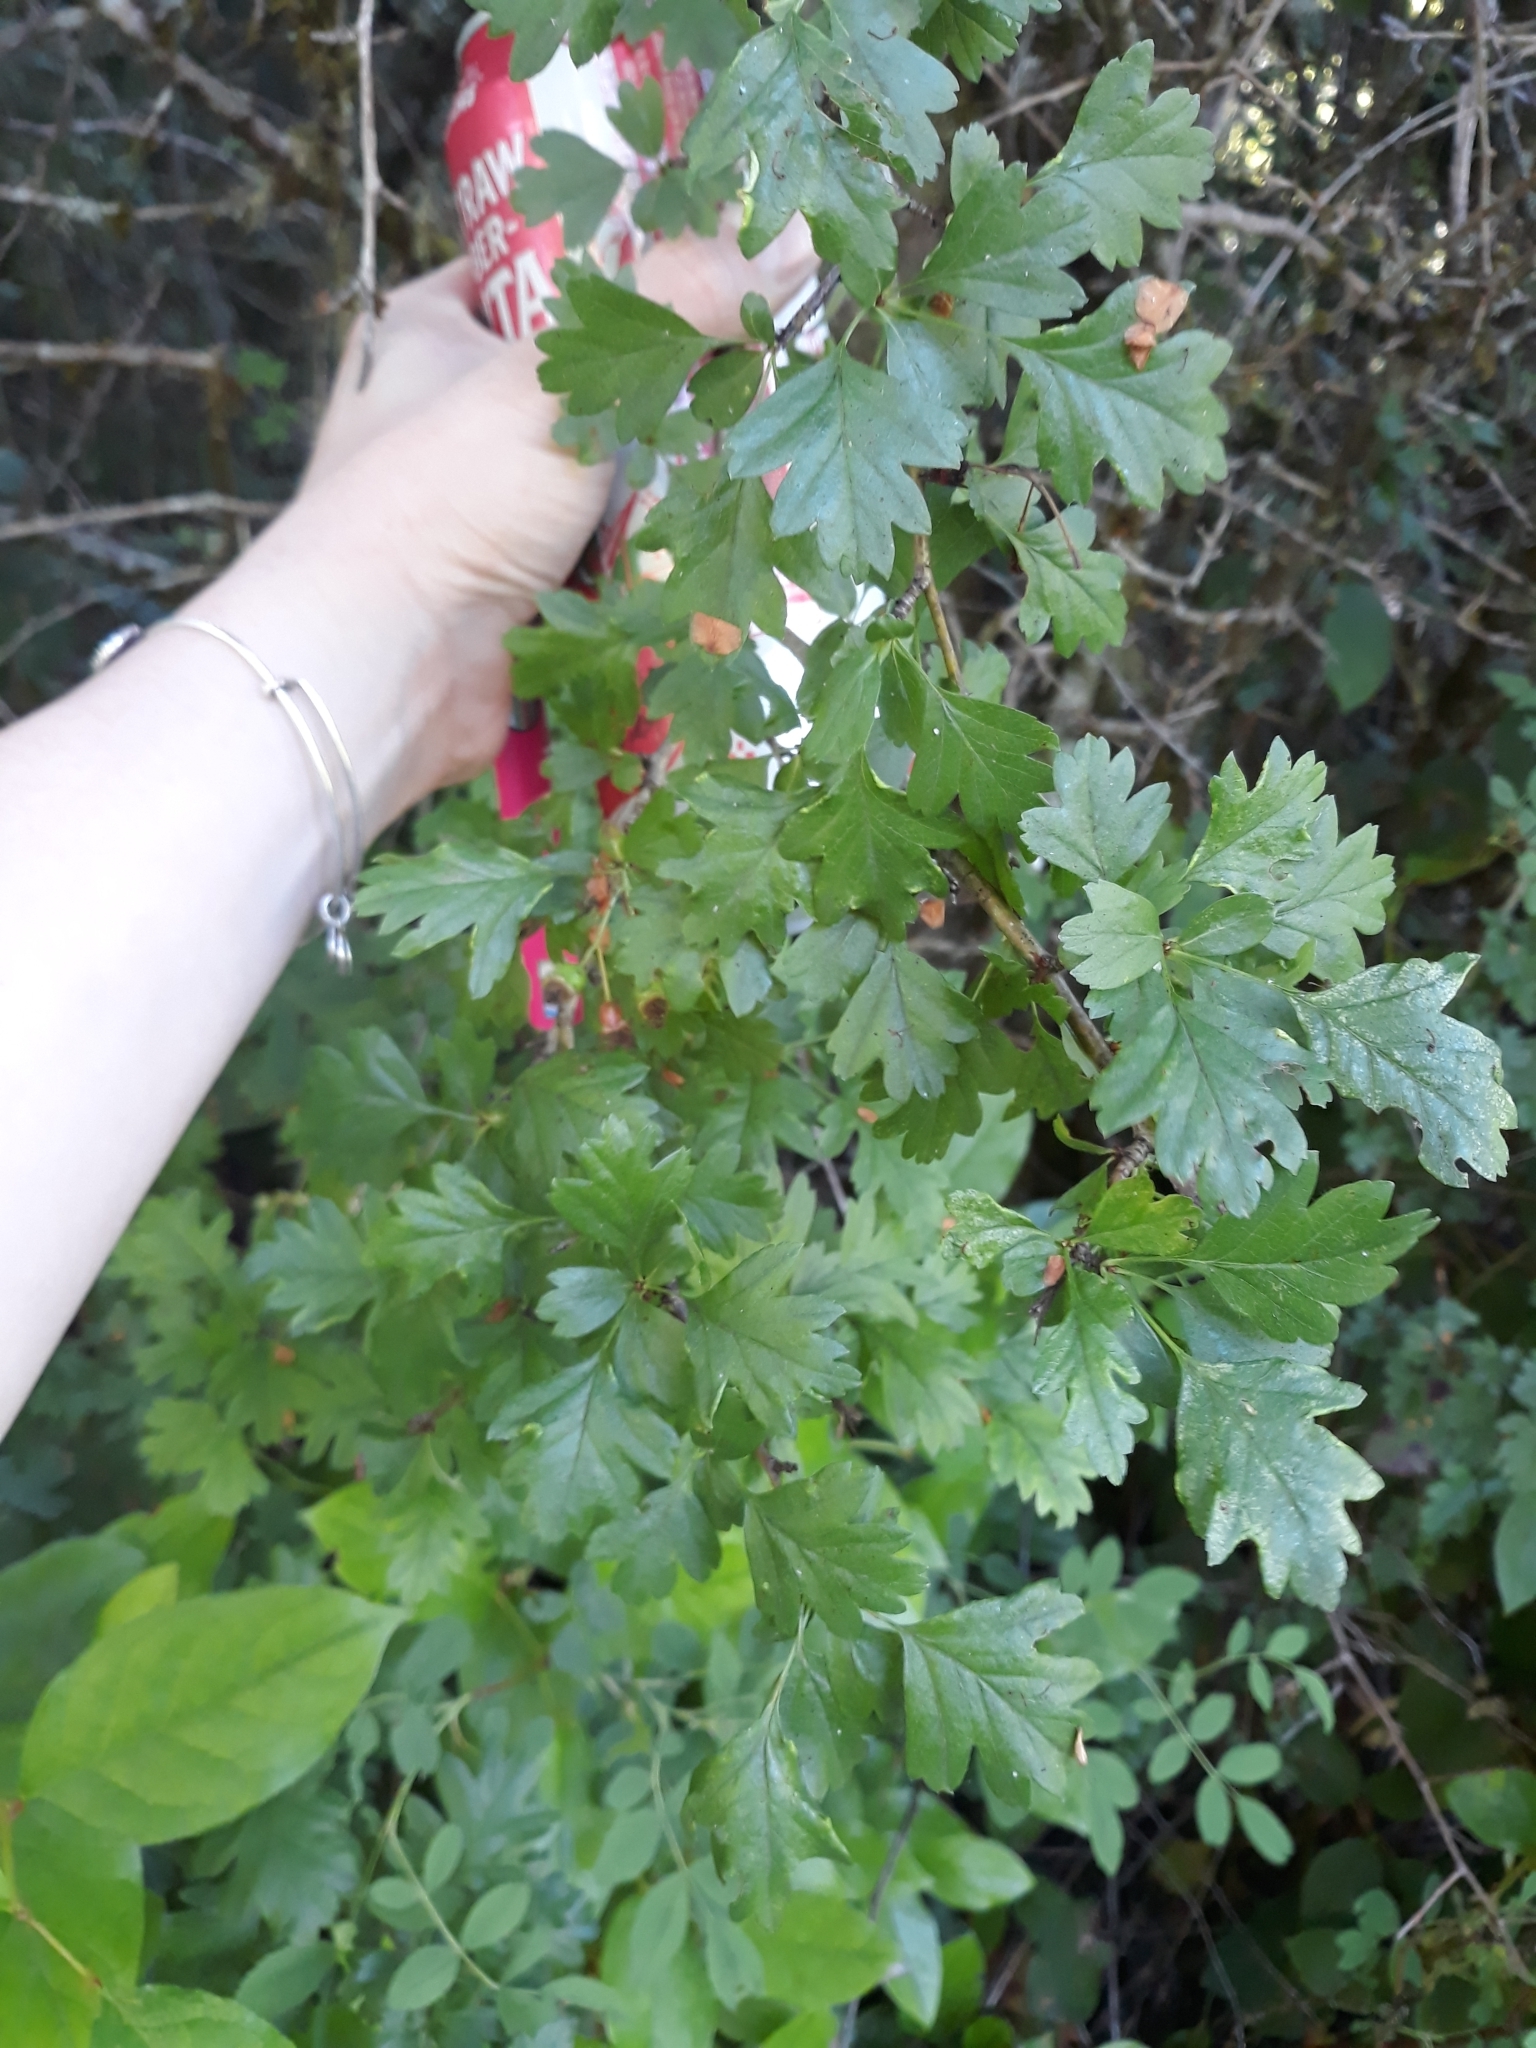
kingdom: Plantae
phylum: Tracheophyta
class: Magnoliopsida
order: Rosales
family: Rosaceae
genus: Crataegus
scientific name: Crataegus monogyna
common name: Hawthorn
